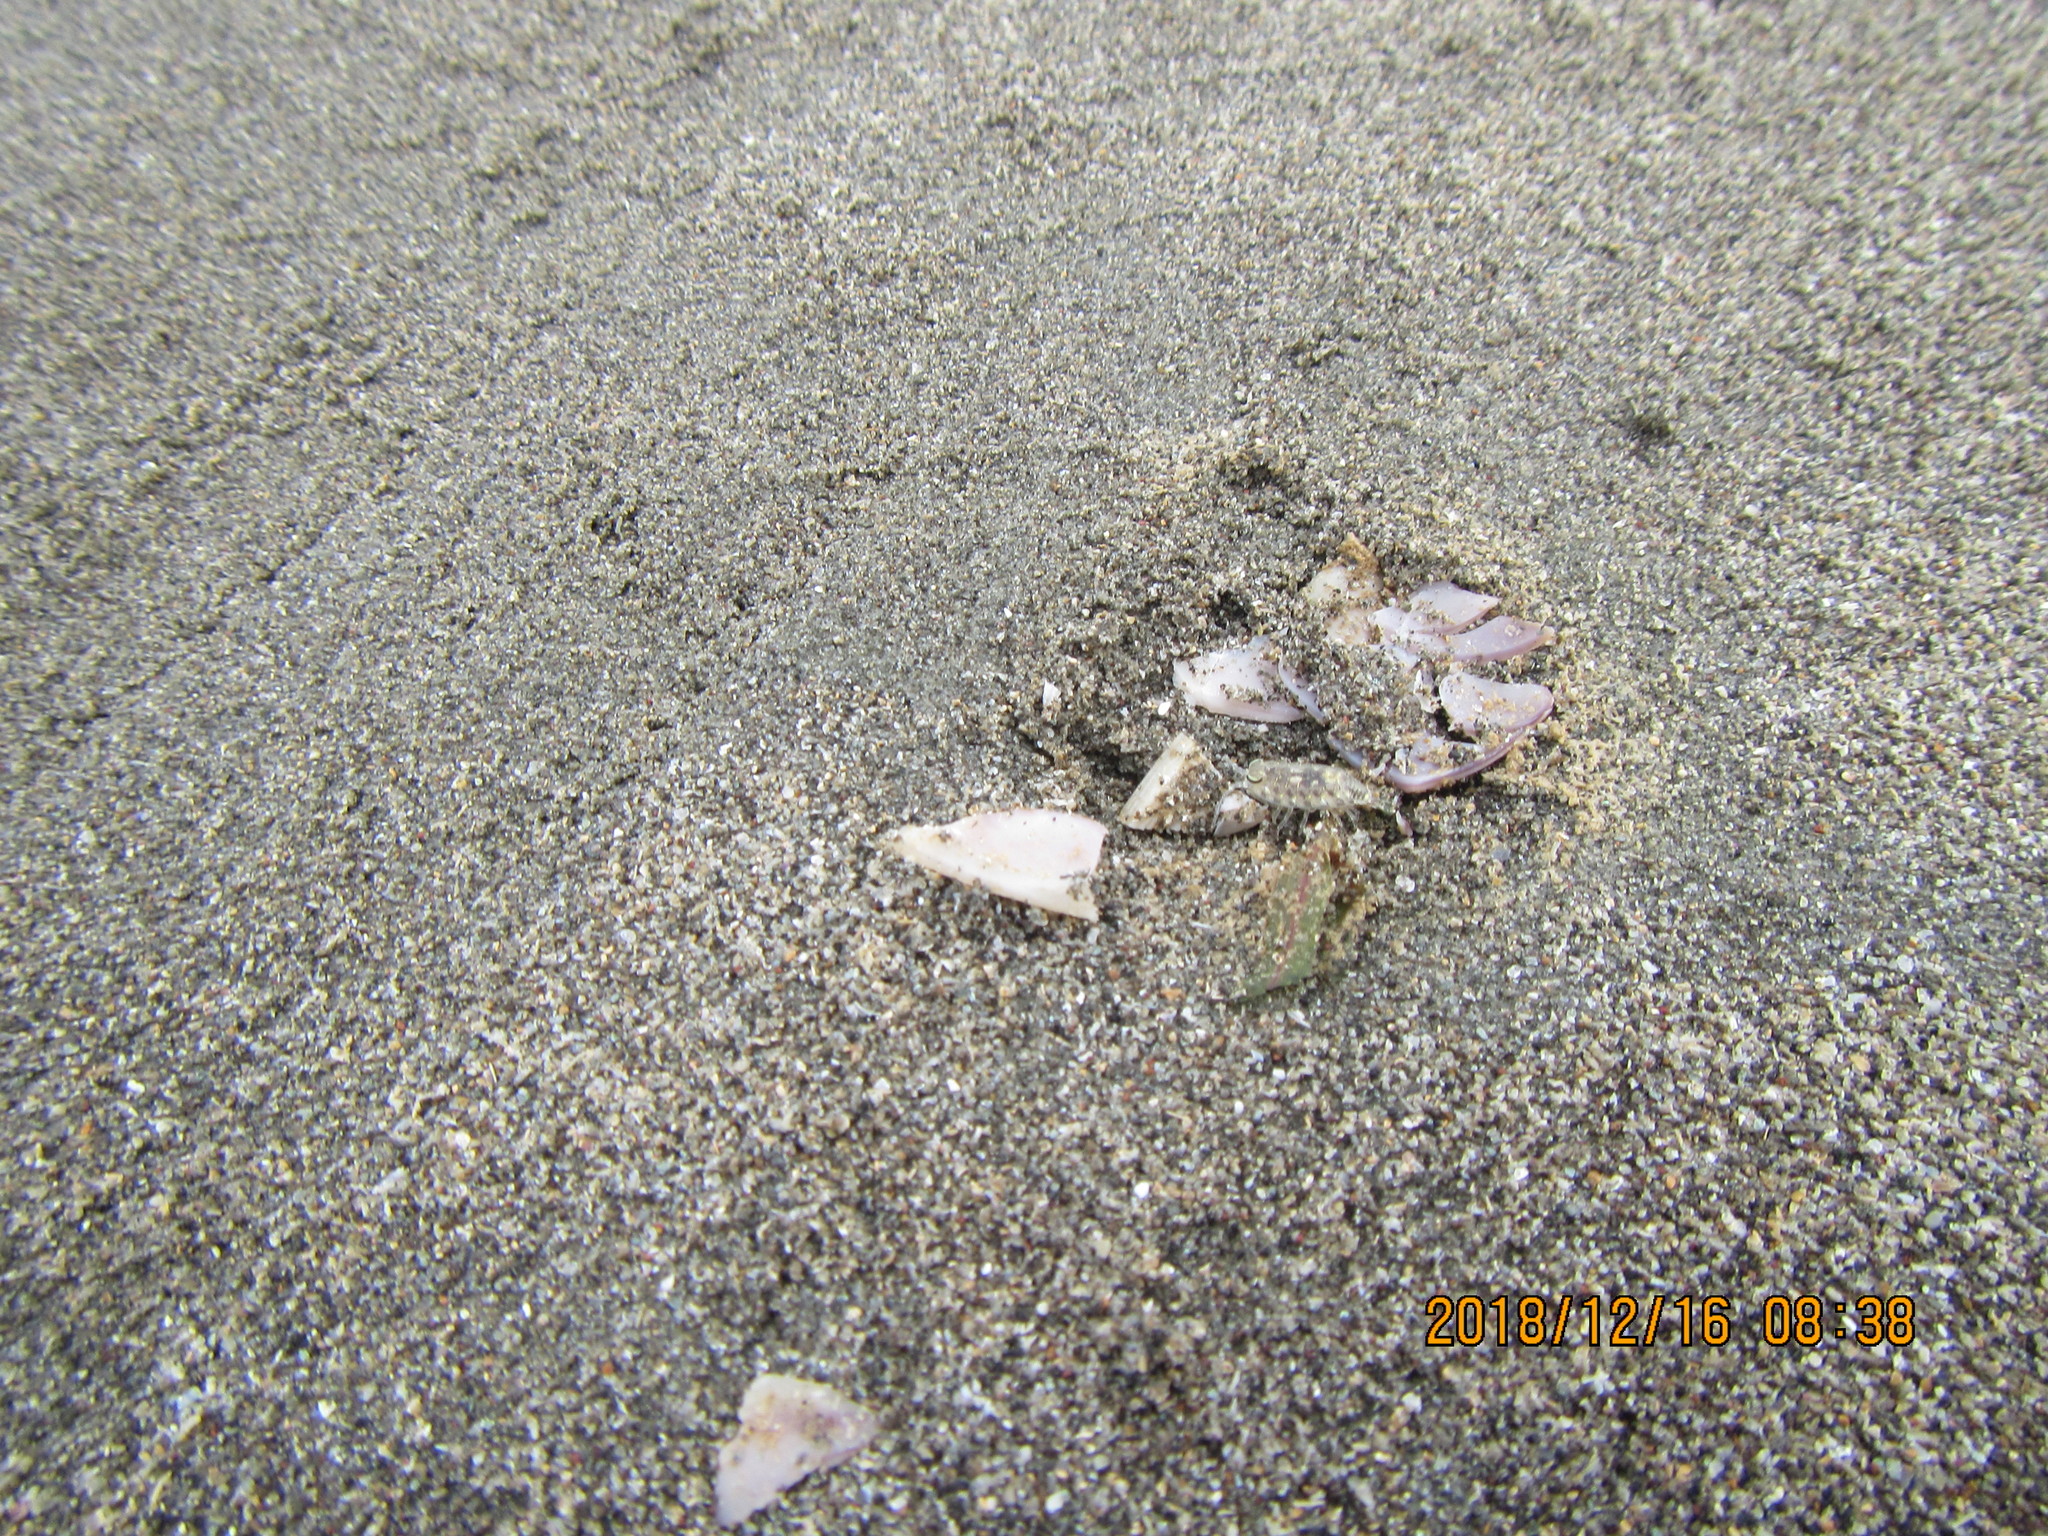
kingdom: Animalia
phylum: Arthropoda
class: Malacostraca
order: Isopoda
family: Scyphacidae
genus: Scyphax
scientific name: Scyphax ornatus
